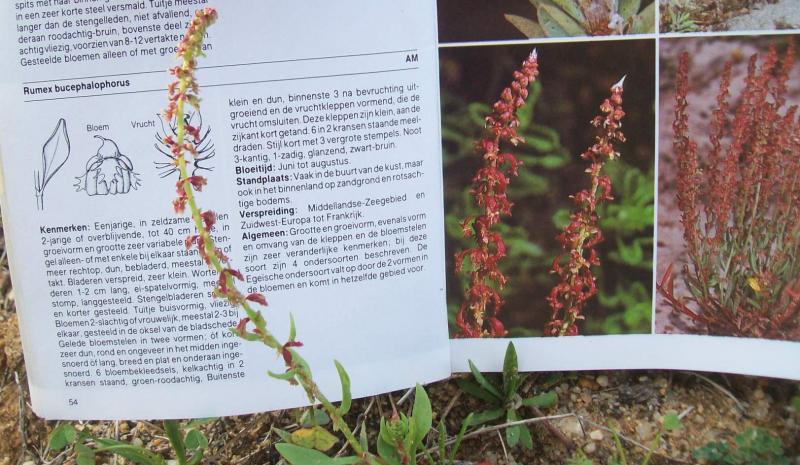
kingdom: Plantae
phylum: Tracheophyta
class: Magnoliopsida
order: Caryophyllales
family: Polygonaceae
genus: Rumex
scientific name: Rumex bucephalophorus
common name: Red dock
